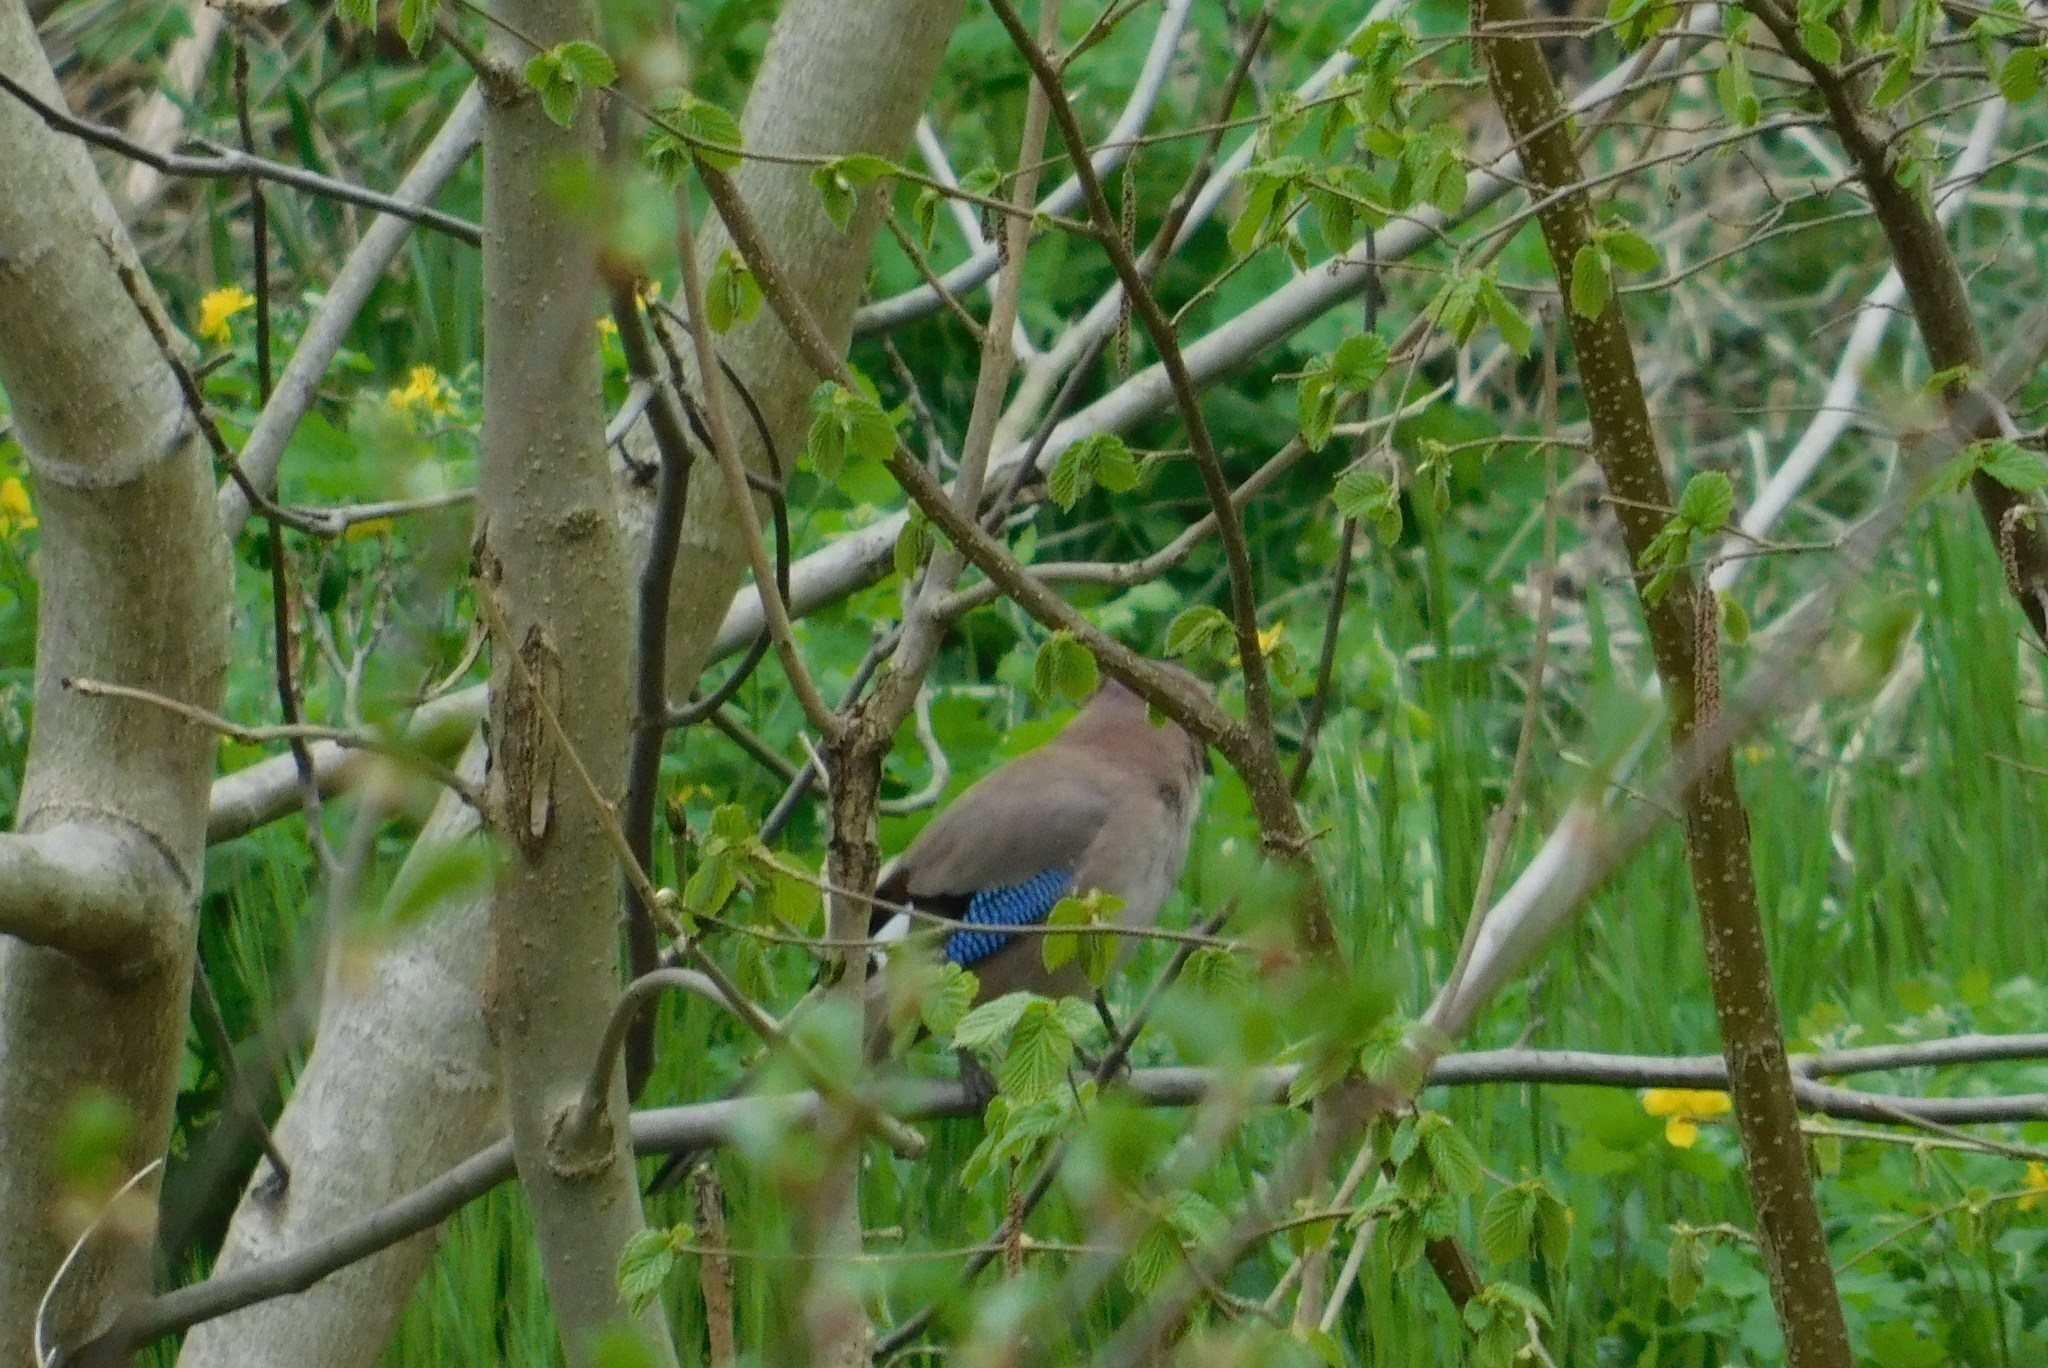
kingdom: Animalia
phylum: Chordata
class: Aves
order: Passeriformes
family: Corvidae
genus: Garrulus
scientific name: Garrulus glandarius
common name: Eurasian jay
